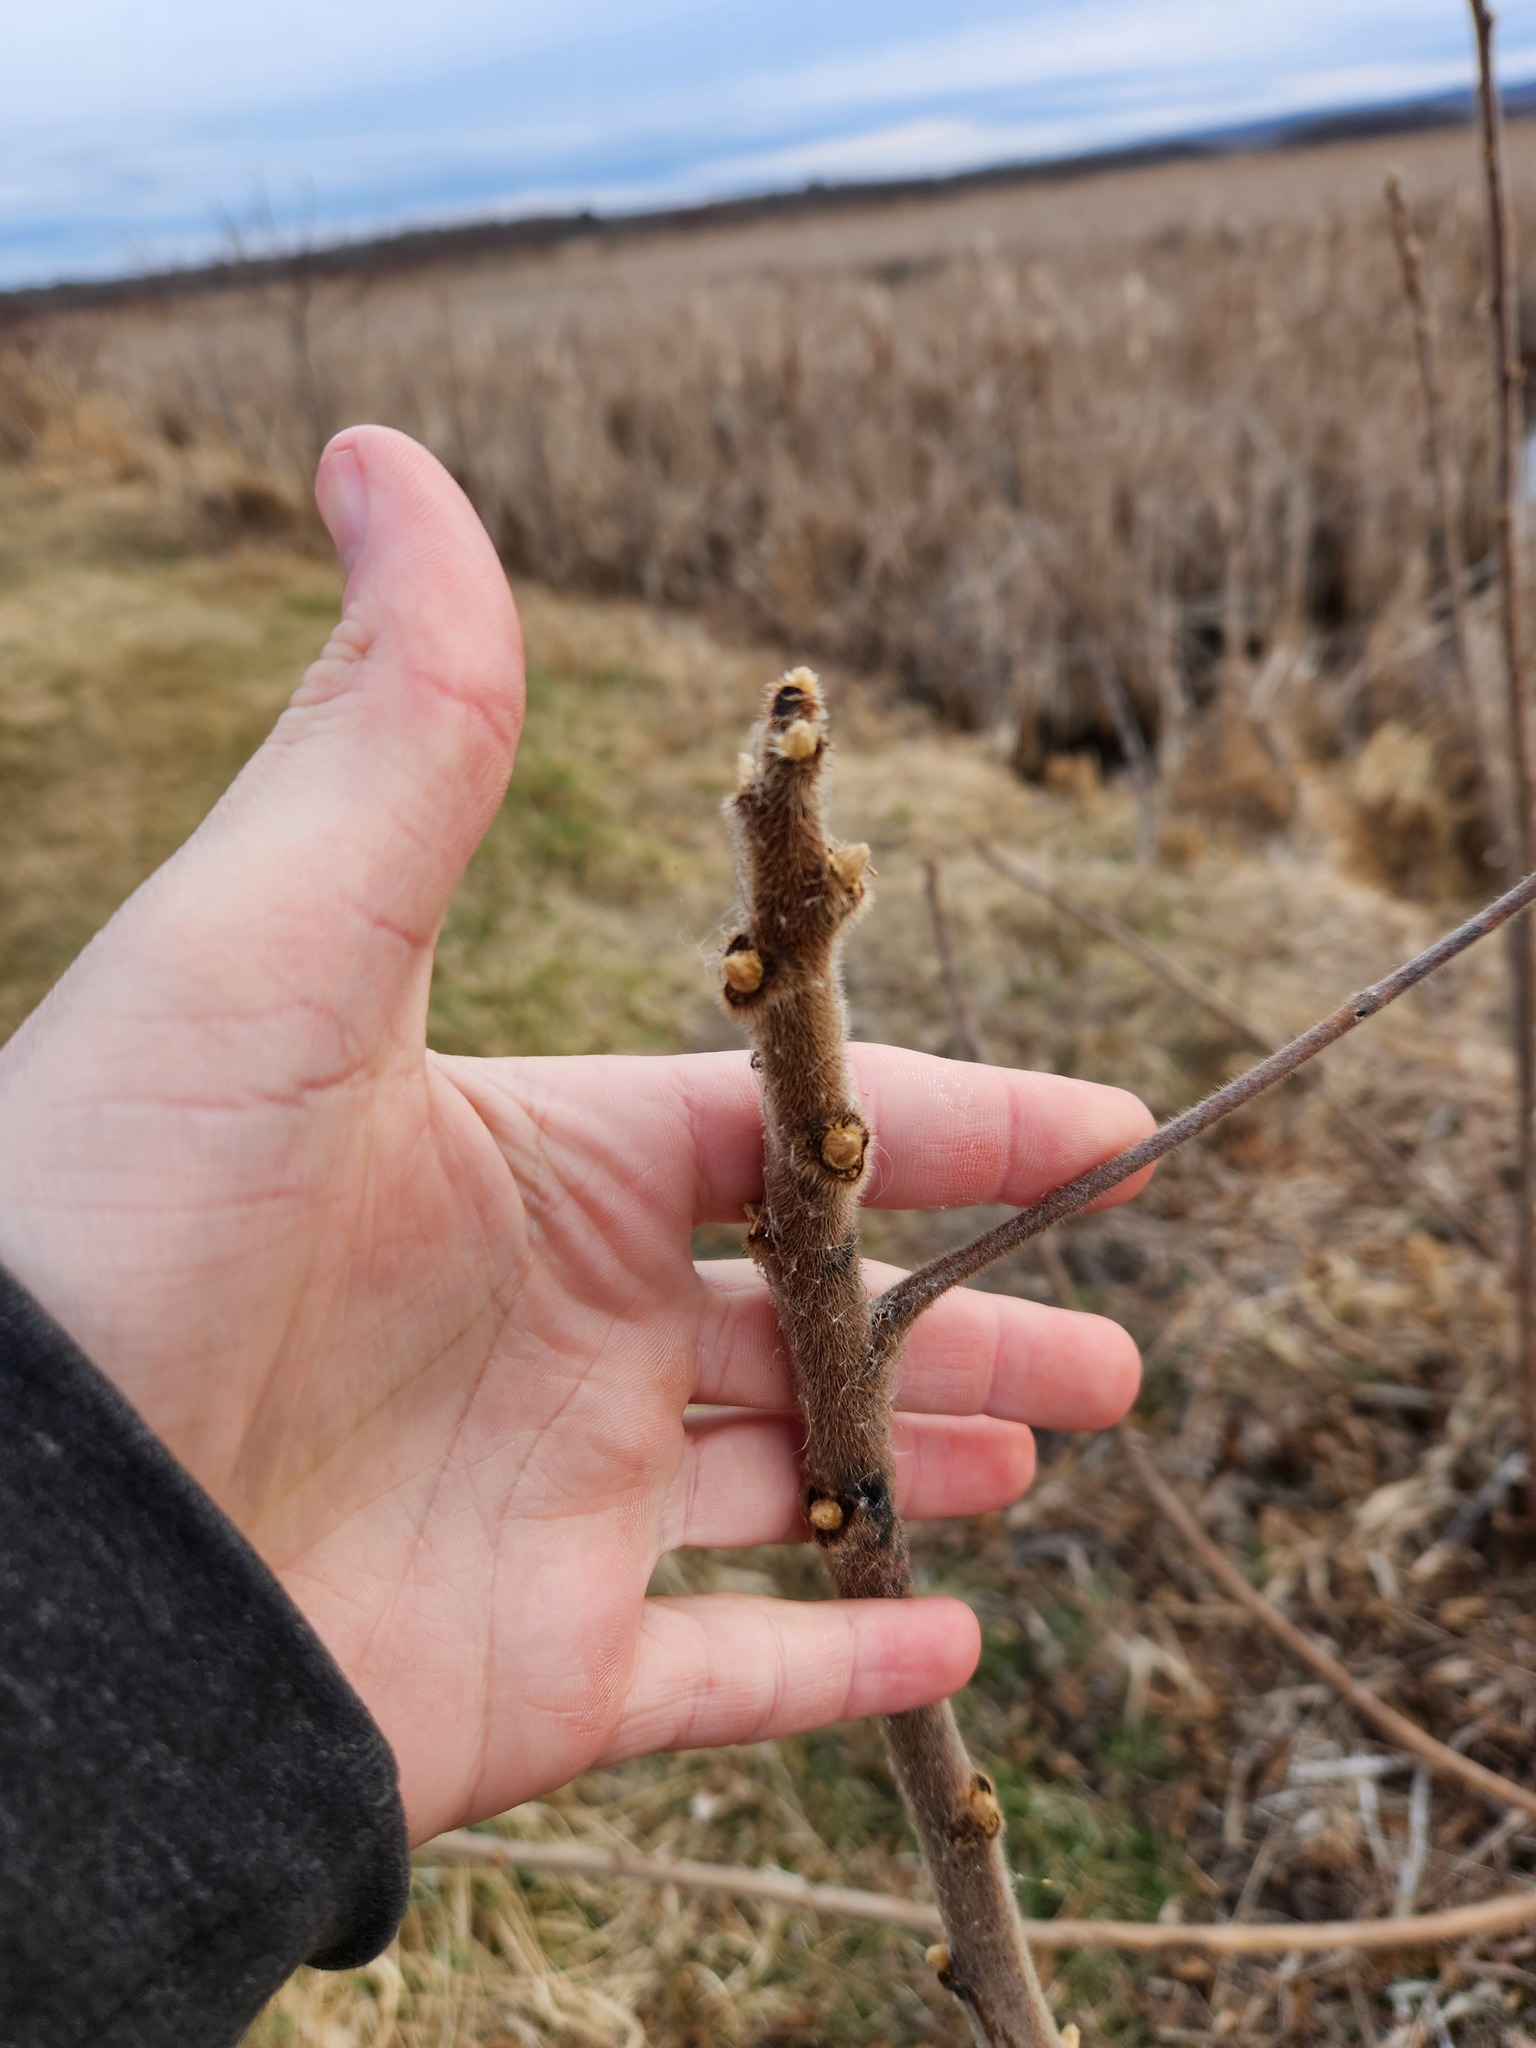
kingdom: Plantae
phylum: Tracheophyta
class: Magnoliopsida
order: Sapindales
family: Anacardiaceae
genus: Rhus
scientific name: Rhus typhina
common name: Staghorn sumac
